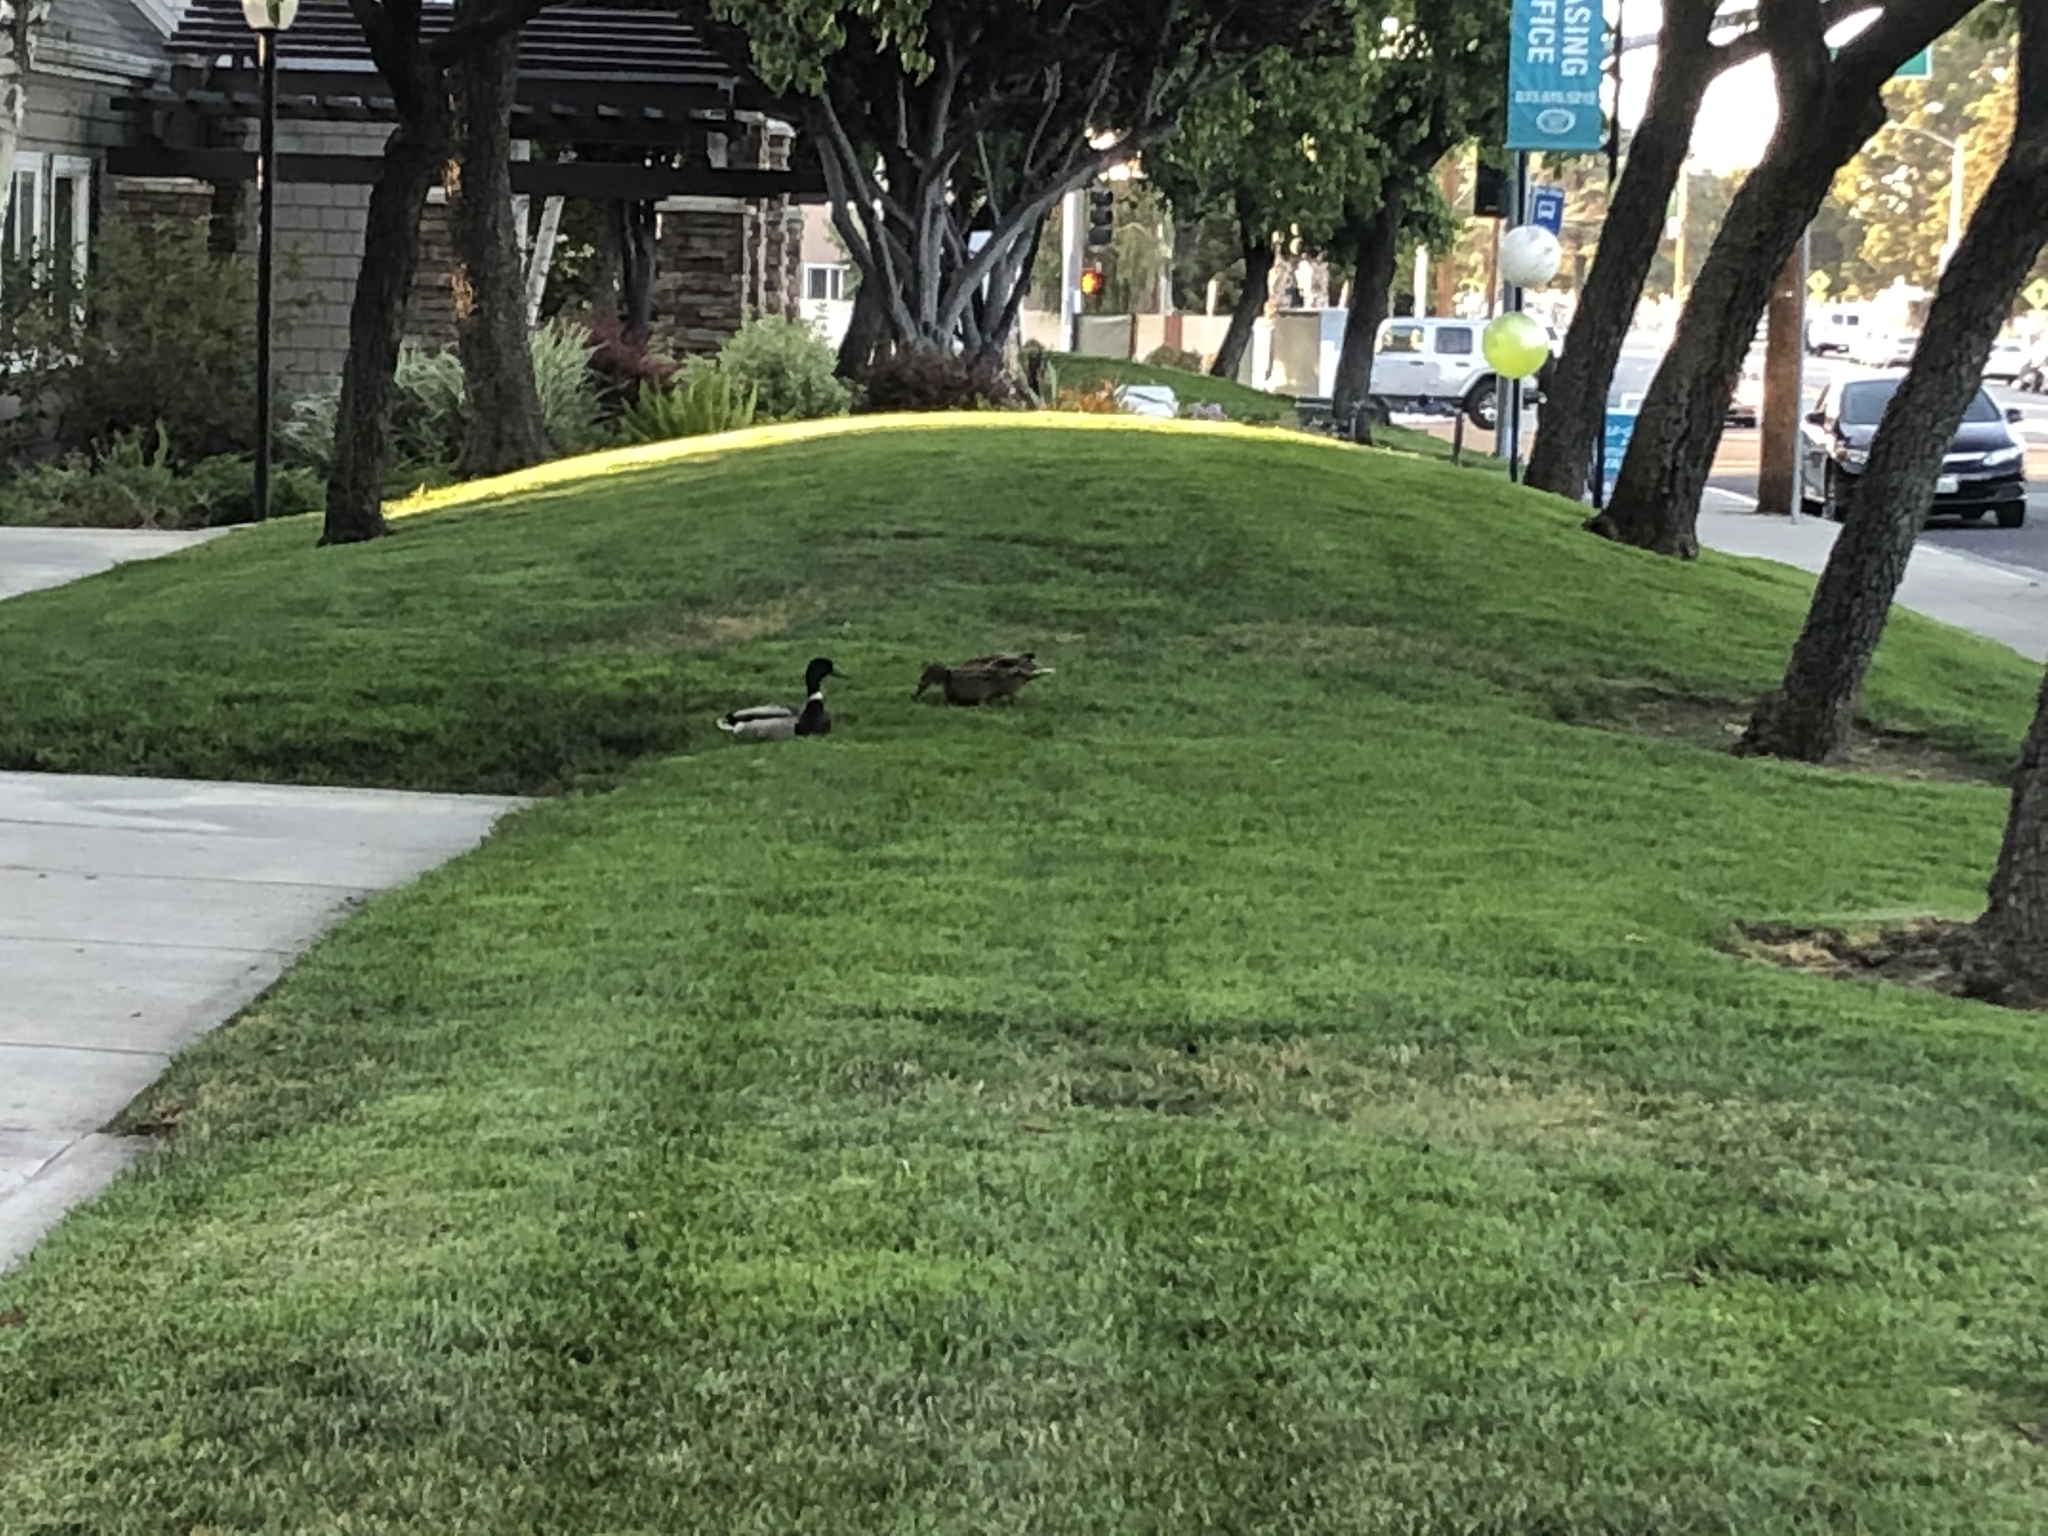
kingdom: Animalia
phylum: Chordata
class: Aves
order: Anseriformes
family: Anatidae
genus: Anas
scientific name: Anas platyrhynchos
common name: Mallard
